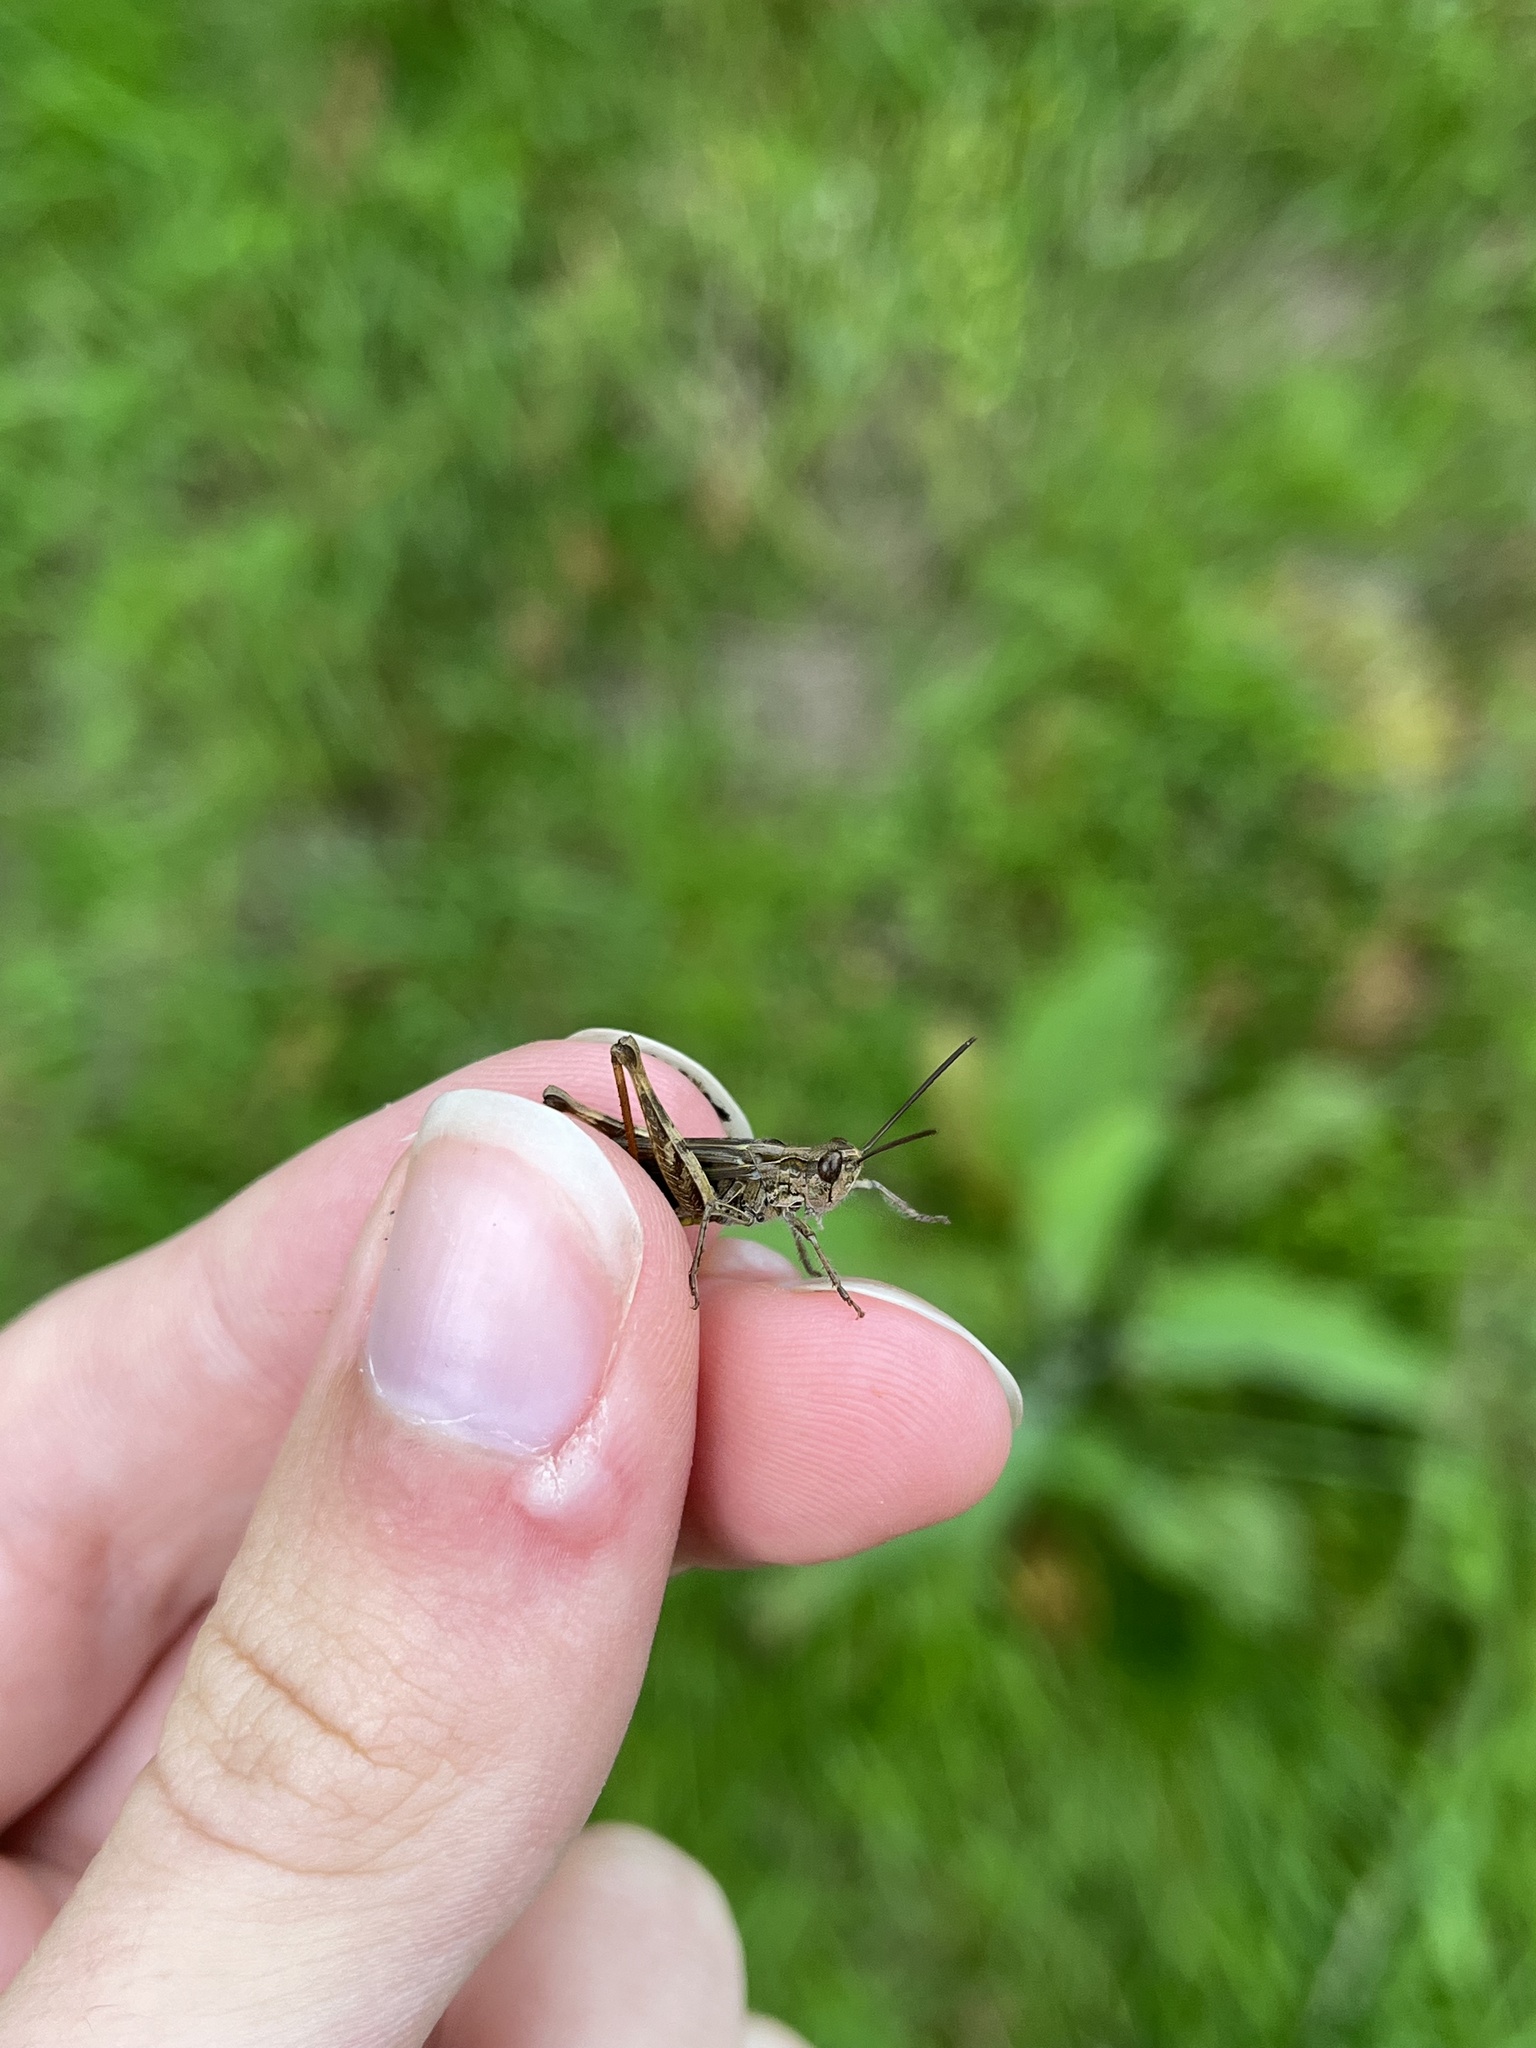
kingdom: Animalia
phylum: Arthropoda
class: Insecta
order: Orthoptera
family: Acrididae
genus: Chorthippus
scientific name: Chorthippus brunneus
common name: Field grasshopper
